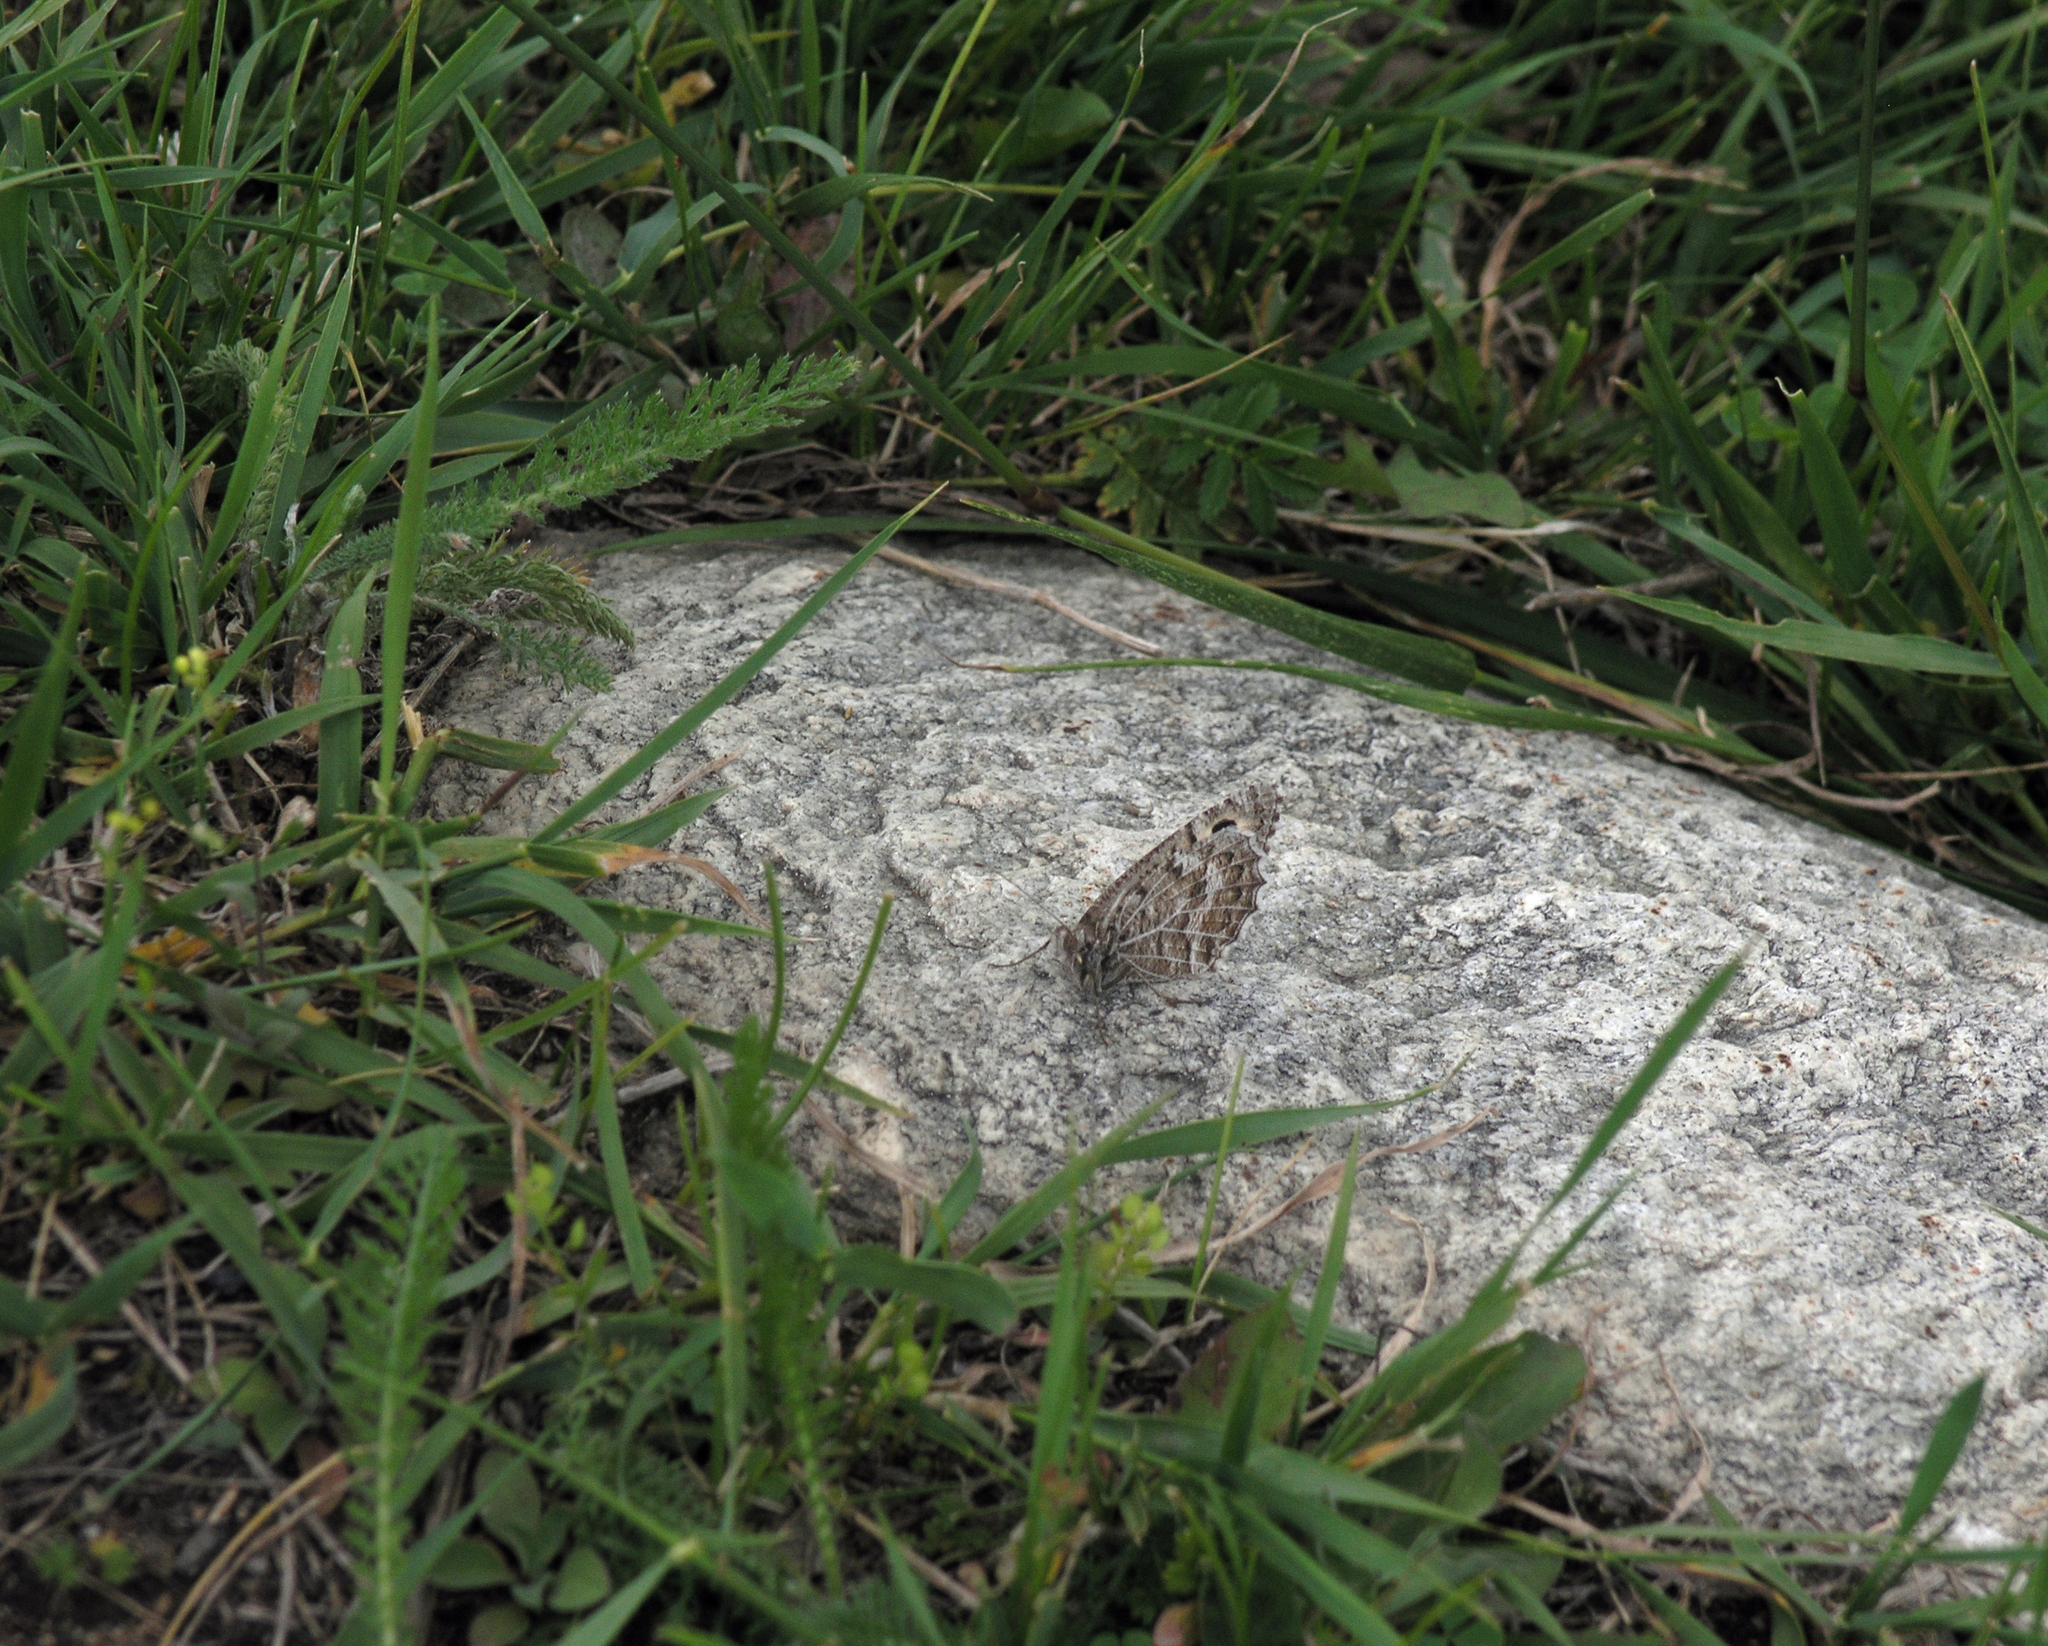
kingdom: Animalia
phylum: Arthropoda
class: Insecta
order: Lepidoptera
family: Nymphalidae
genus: Pseudochazara
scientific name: Pseudochazara hippolyte
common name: Nevada grayling
